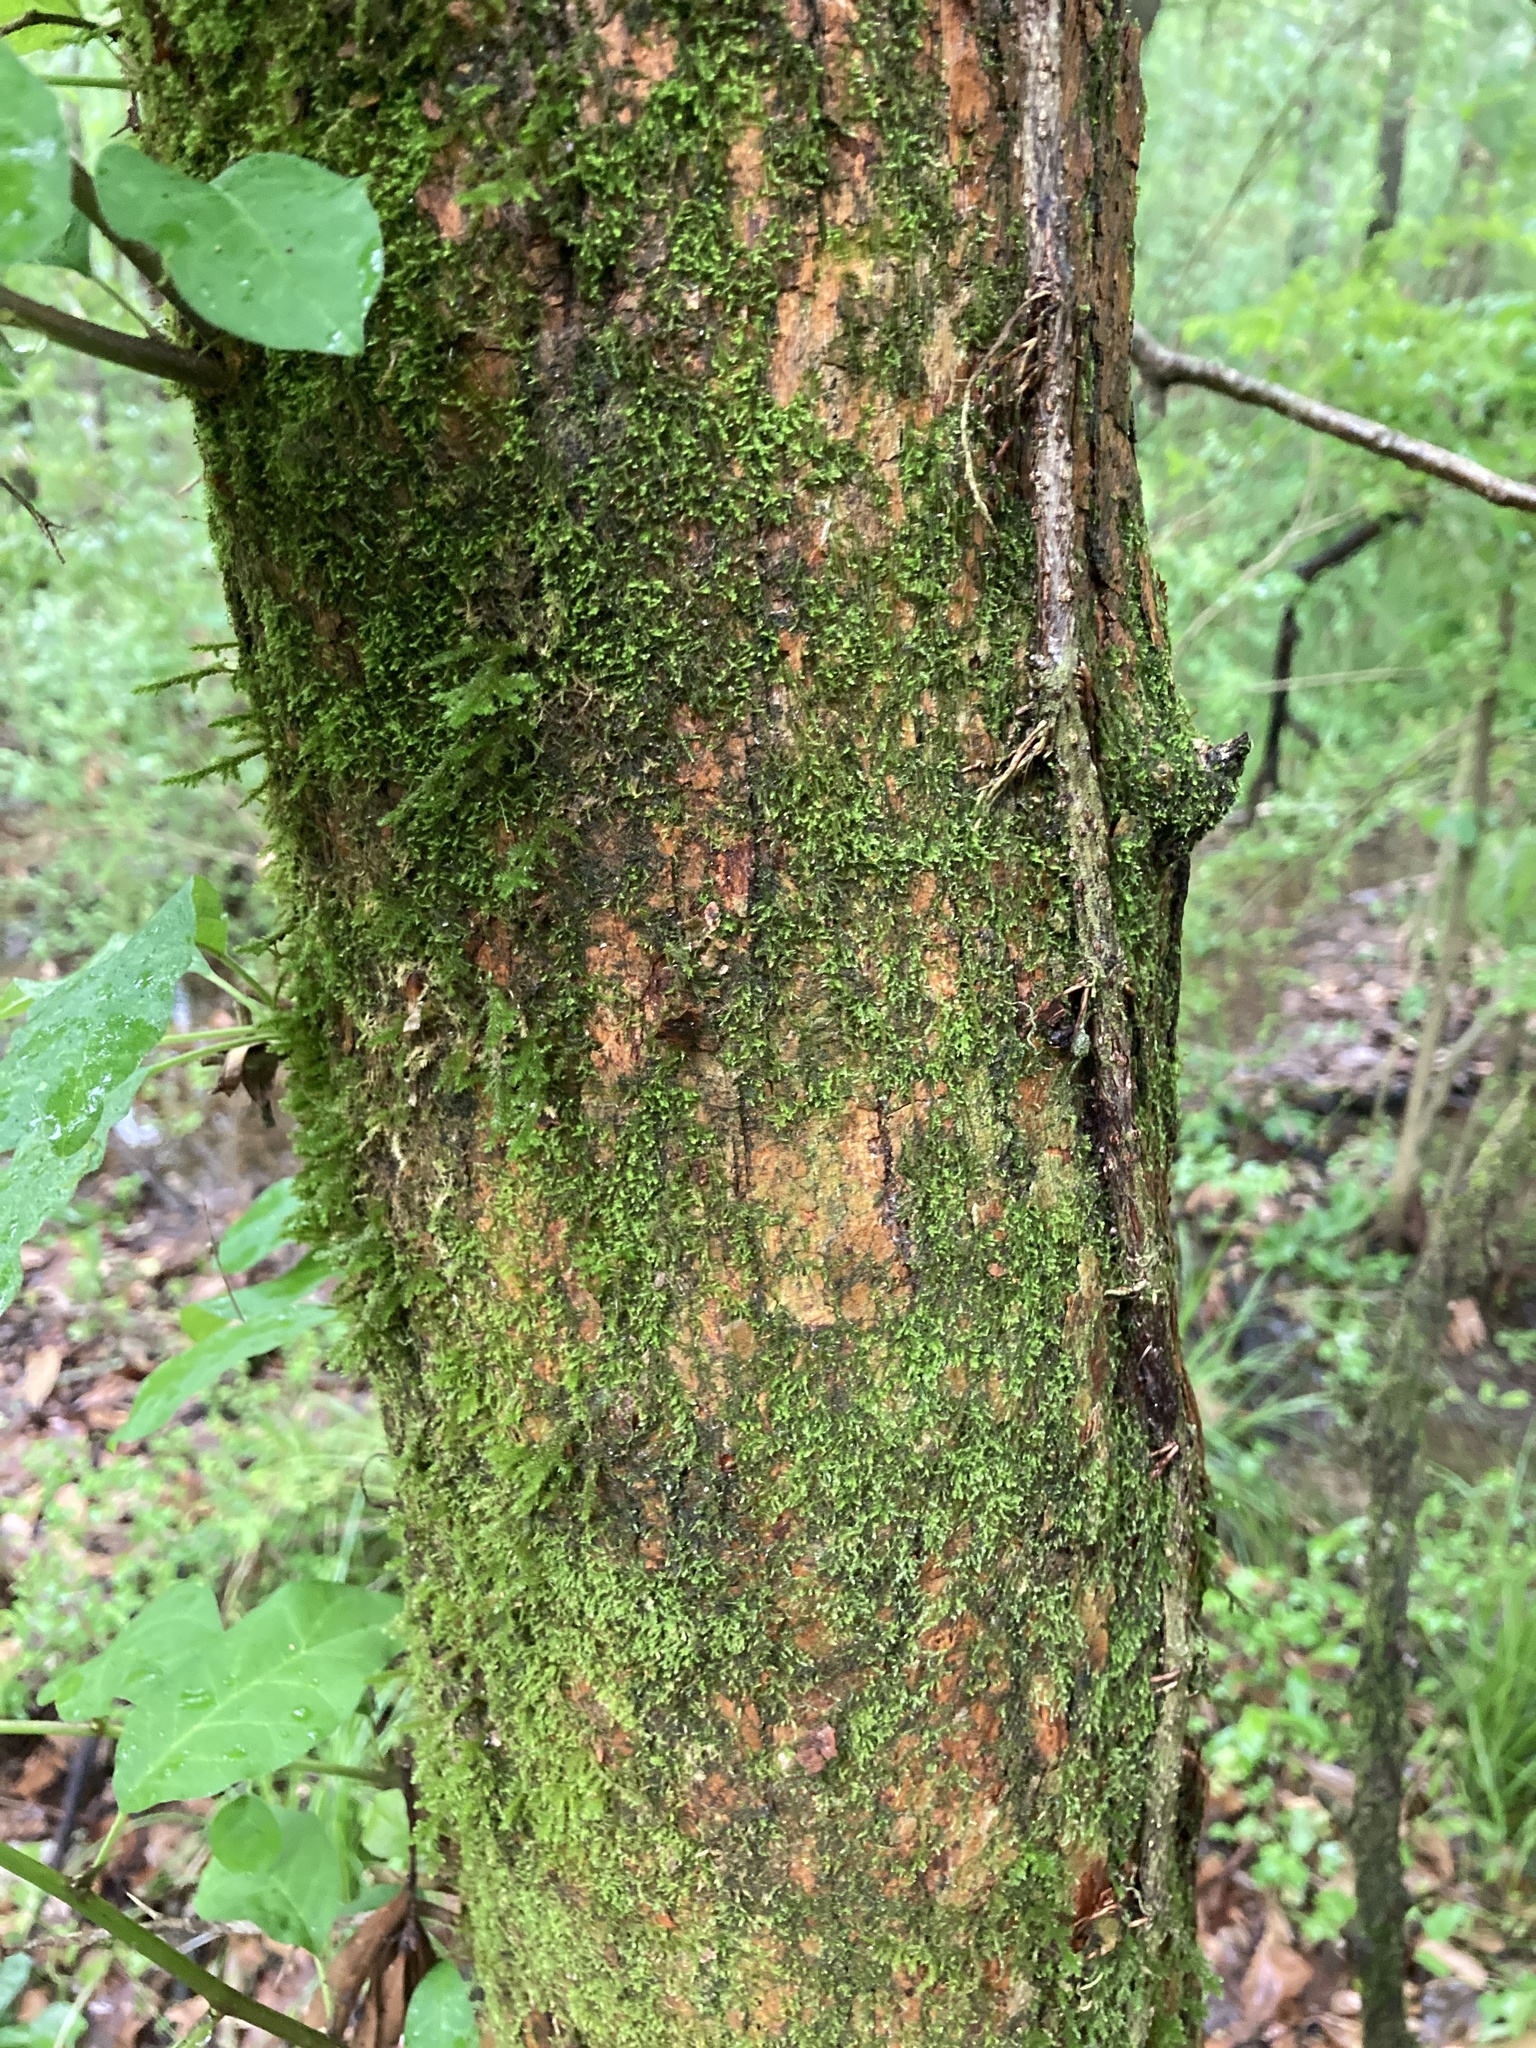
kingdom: Plantae
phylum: Tracheophyta
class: Magnoliopsida
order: Rosales
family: Moraceae
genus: Maclura
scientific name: Maclura pomifera
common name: Osage-orange
